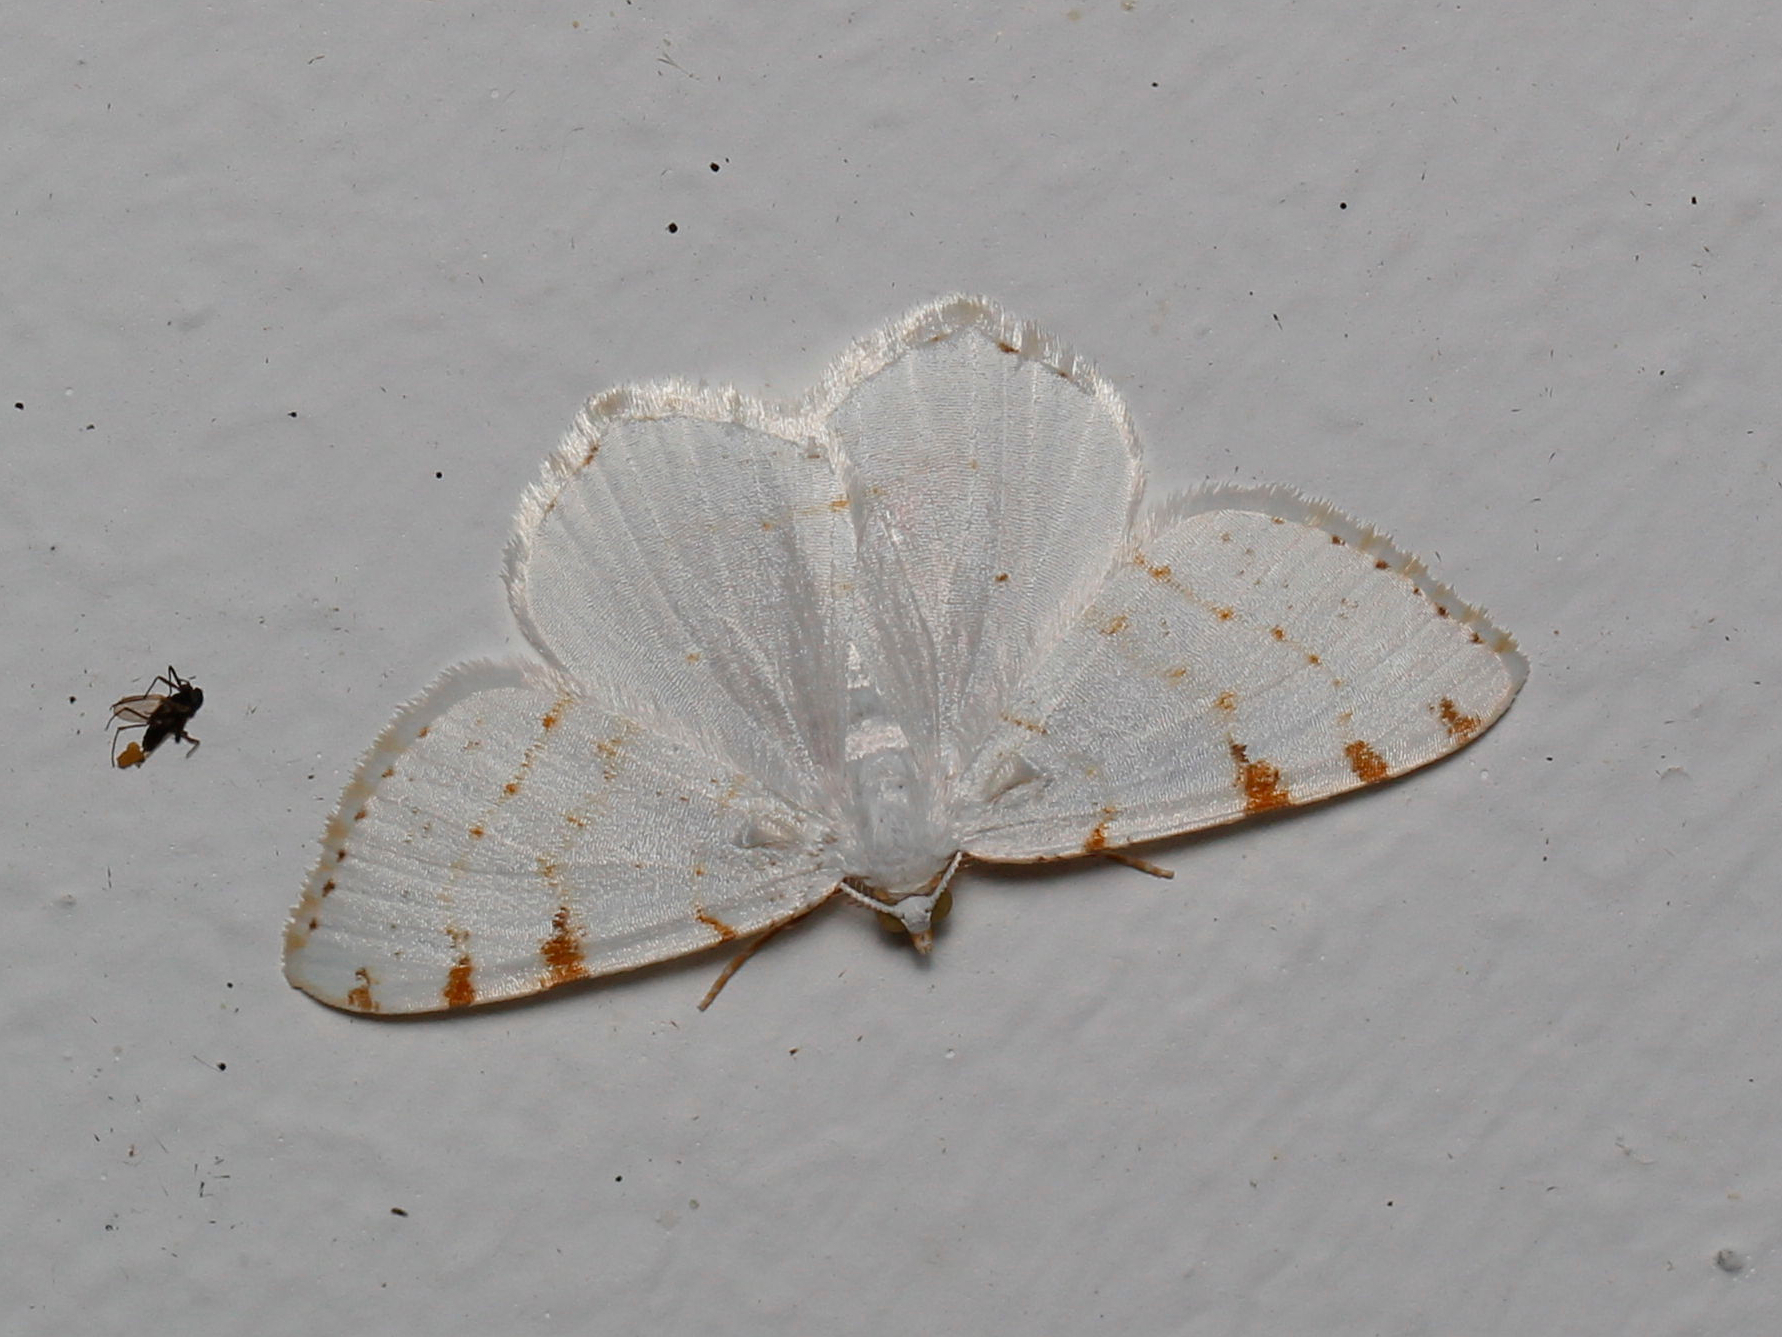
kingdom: Animalia
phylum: Arthropoda
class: Insecta
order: Lepidoptera
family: Geometridae
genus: Macaria
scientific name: Macaria pustularia
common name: Lesser maple spanworm moth
